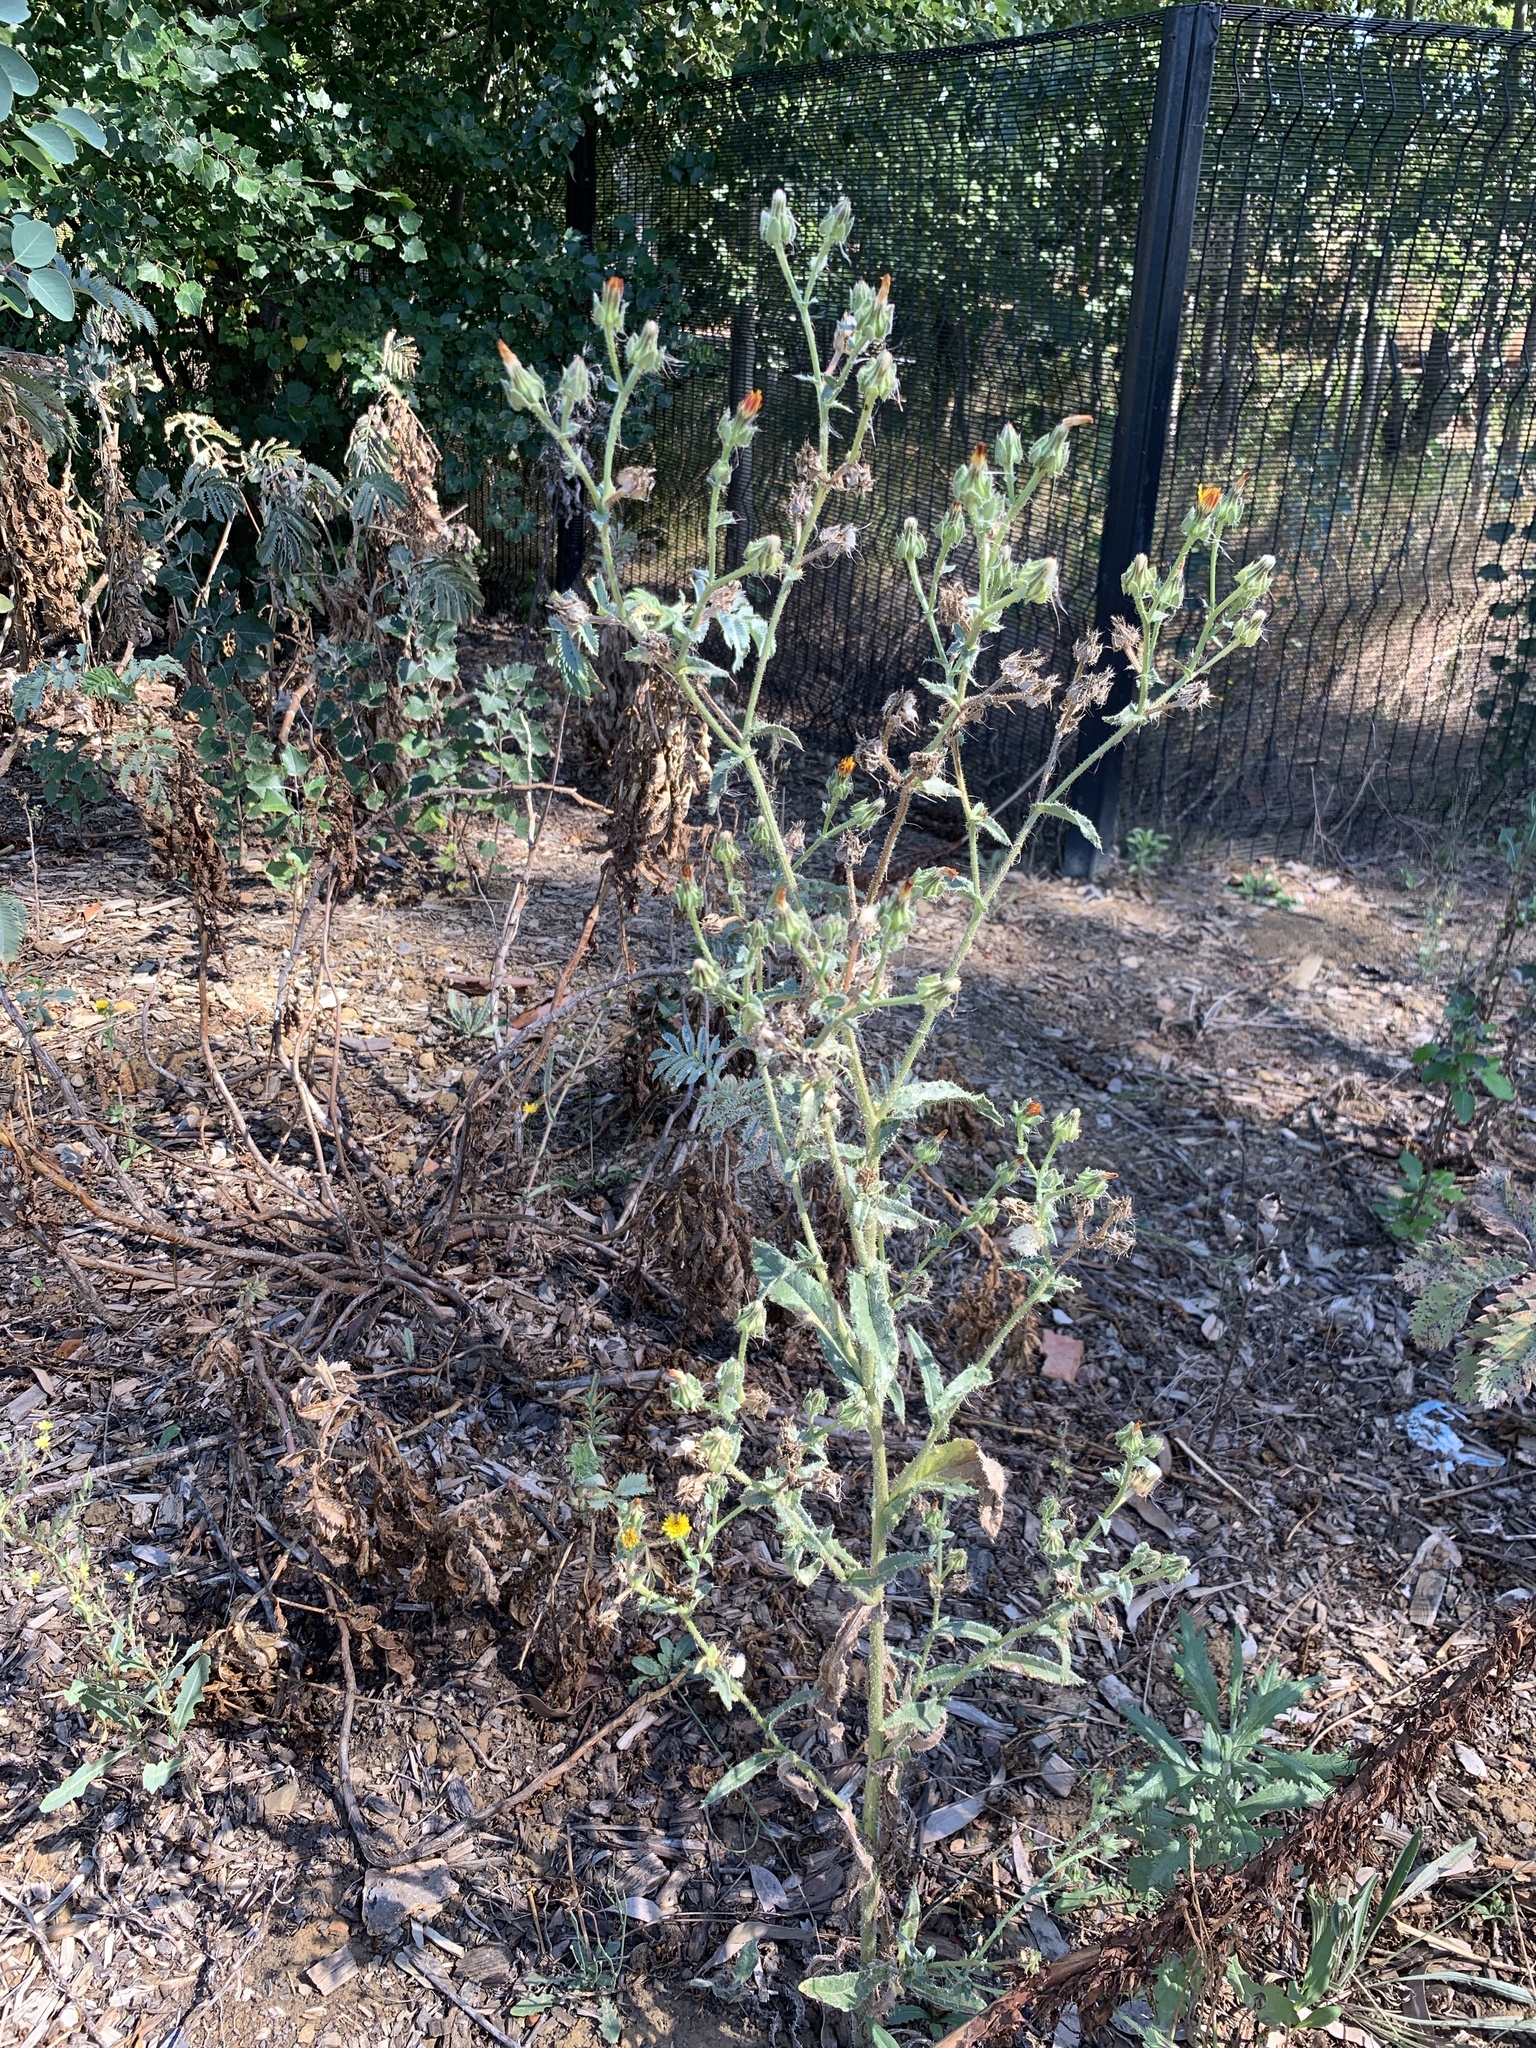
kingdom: Plantae
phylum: Tracheophyta
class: Magnoliopsida
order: Asterales
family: Asteraceae
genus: Helminthotheca
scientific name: Helminthotheca echioides
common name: Ox-tongue
